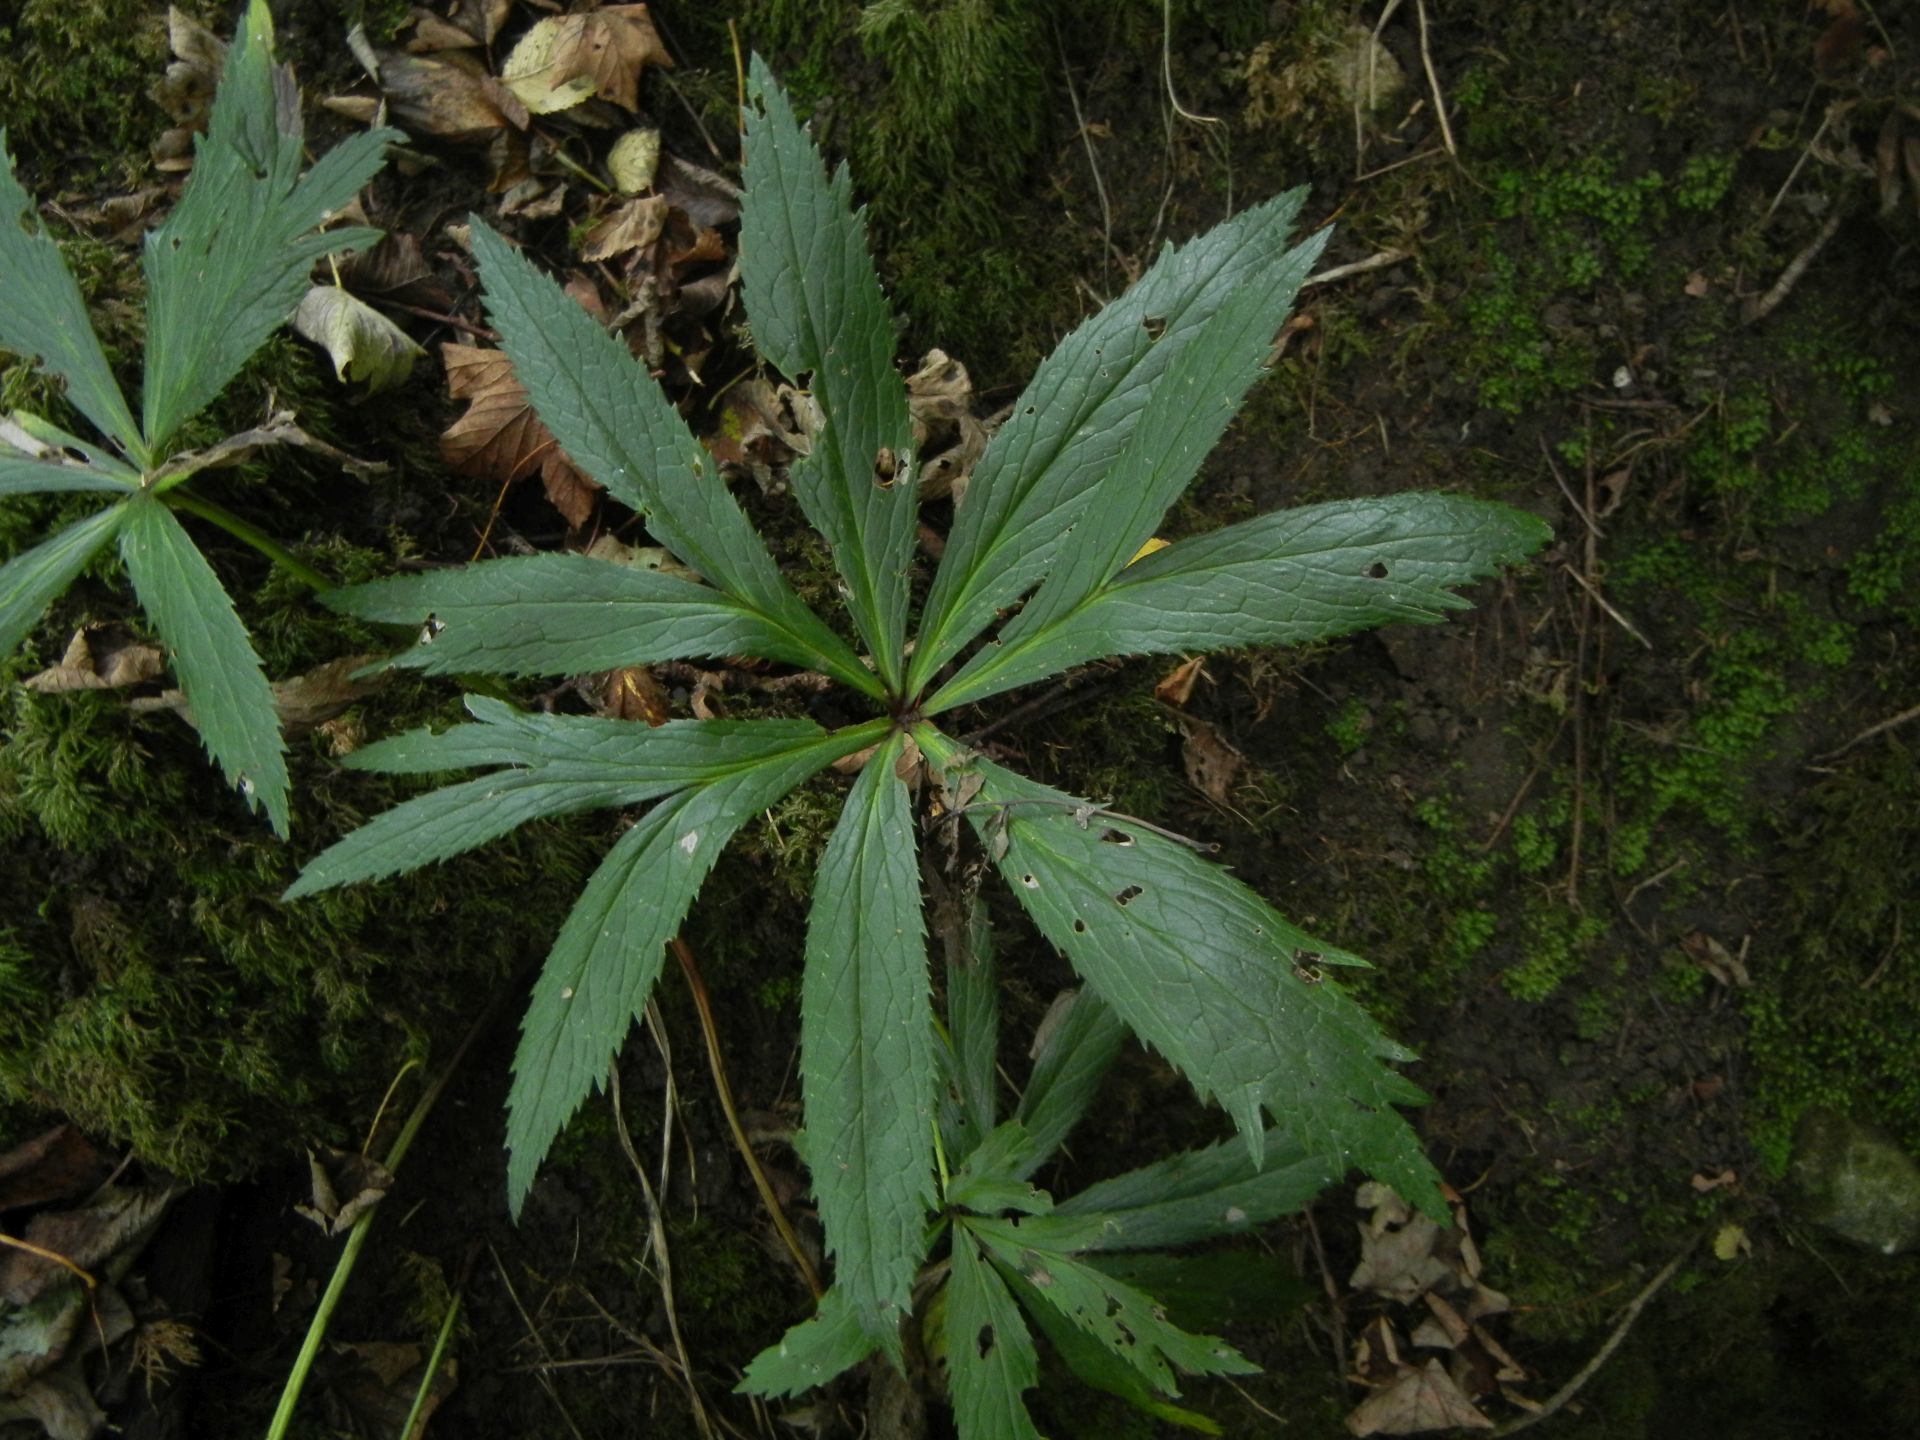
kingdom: Plantae
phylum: Tracheophyta
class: Magnoliopsida
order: Ranunculales
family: Ranunculaceae
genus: Helleborus
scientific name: Helleborus viridis
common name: Green hellebore
